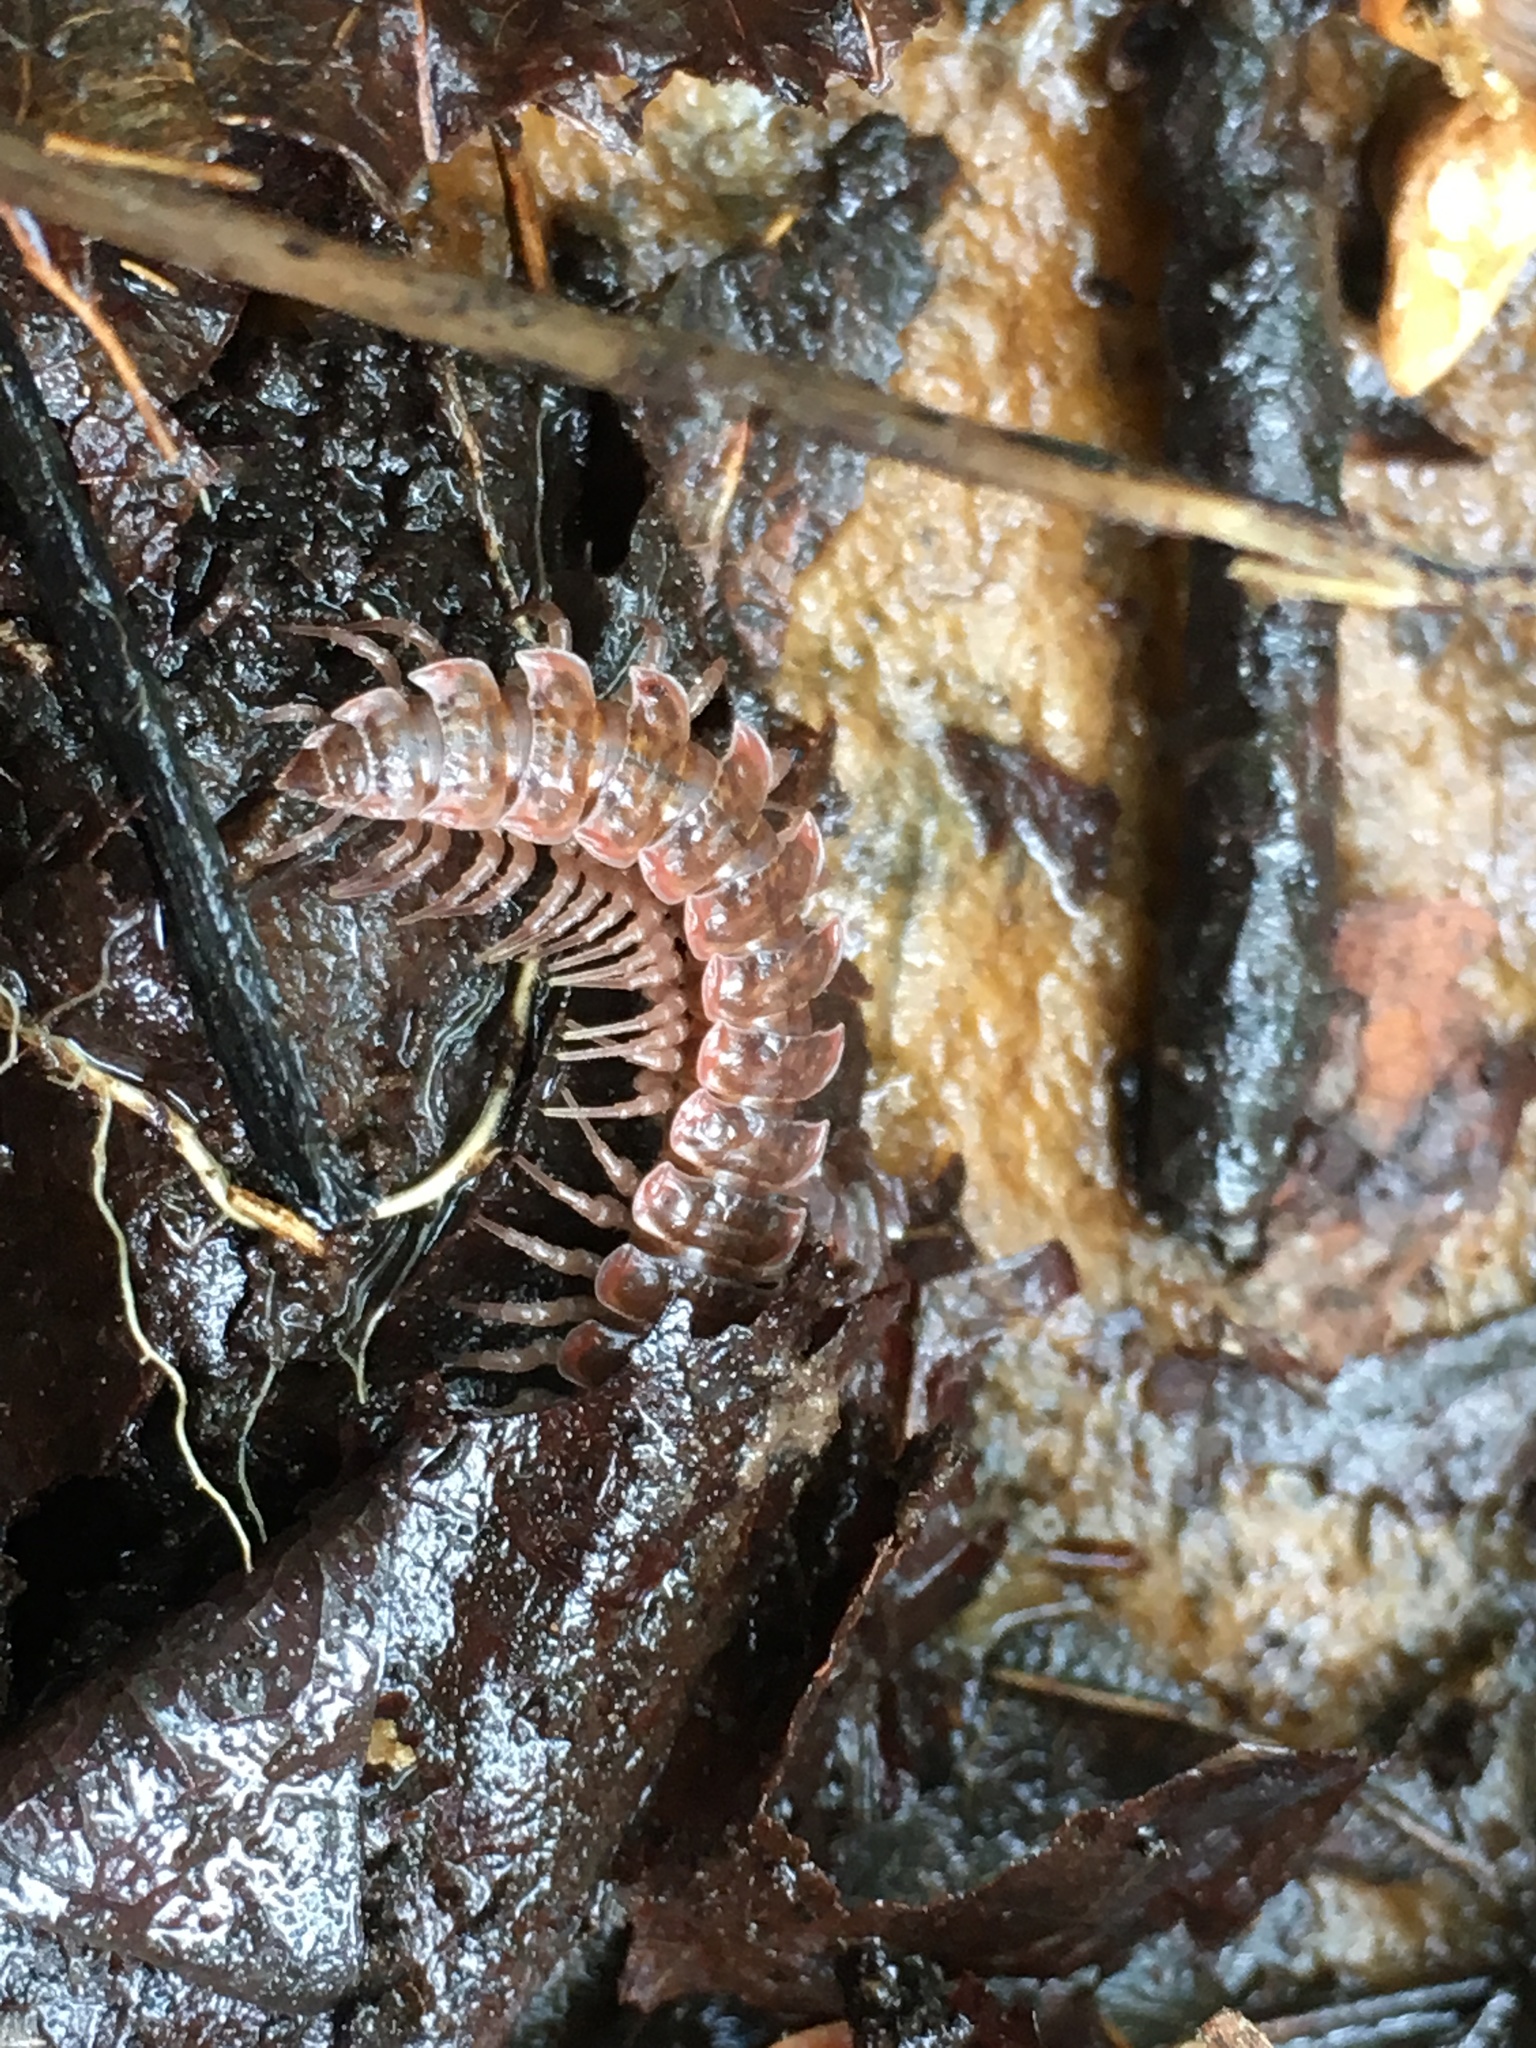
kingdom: Animalia
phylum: Arthropoda
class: Diplopoda
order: Polydesmida
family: Polydesmidae
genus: Pseudopolydesmus
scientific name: Pseudopolydesmus serratus
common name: Common pink flat-back millipede
